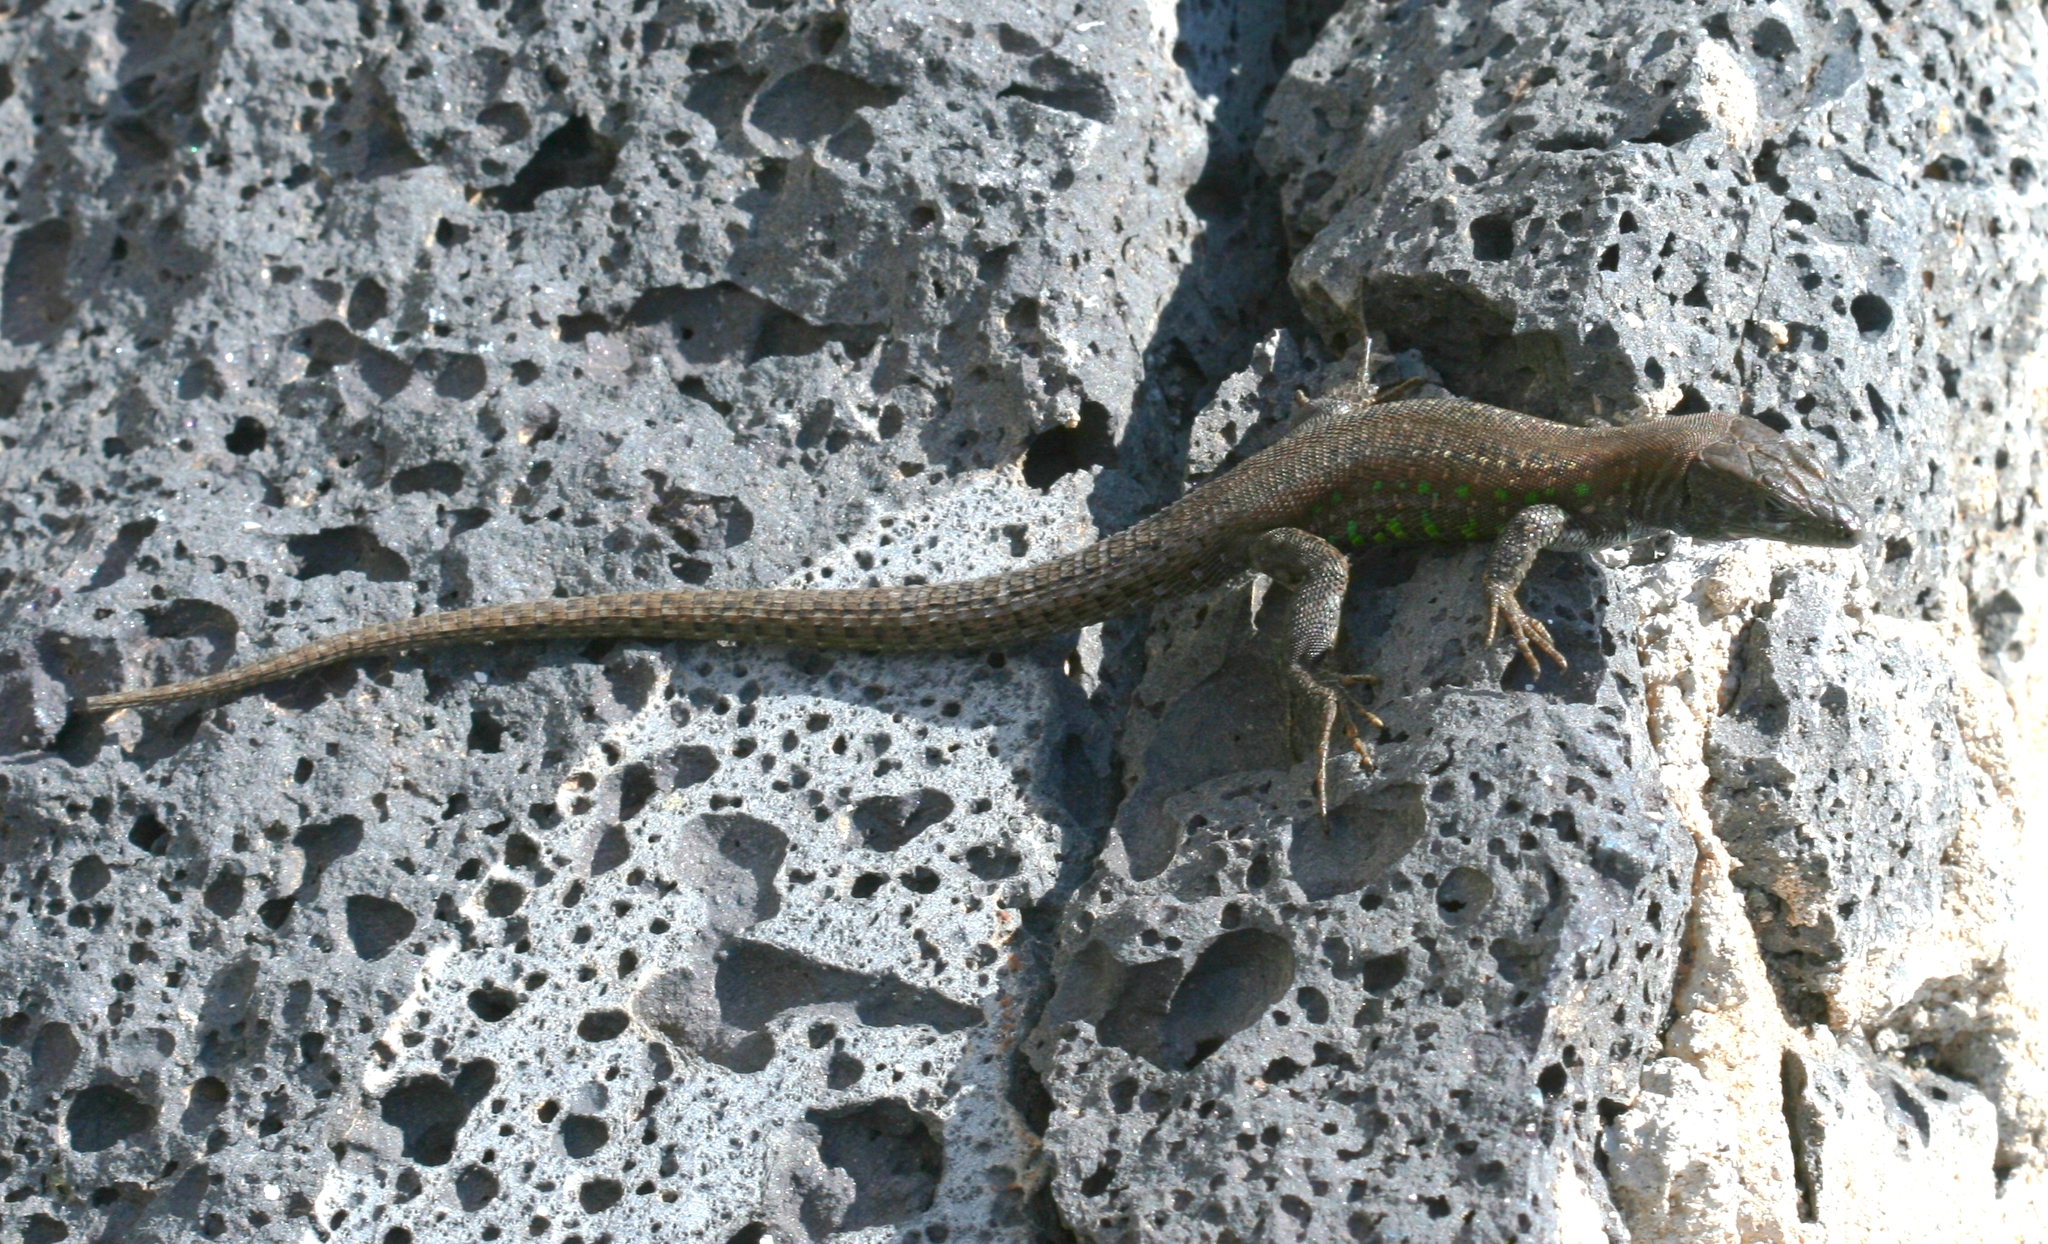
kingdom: Animalia
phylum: Chordata
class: Squamata
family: Lacertidae
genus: Gallotia
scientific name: Gallotia atlantica
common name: Atlantic lizard
